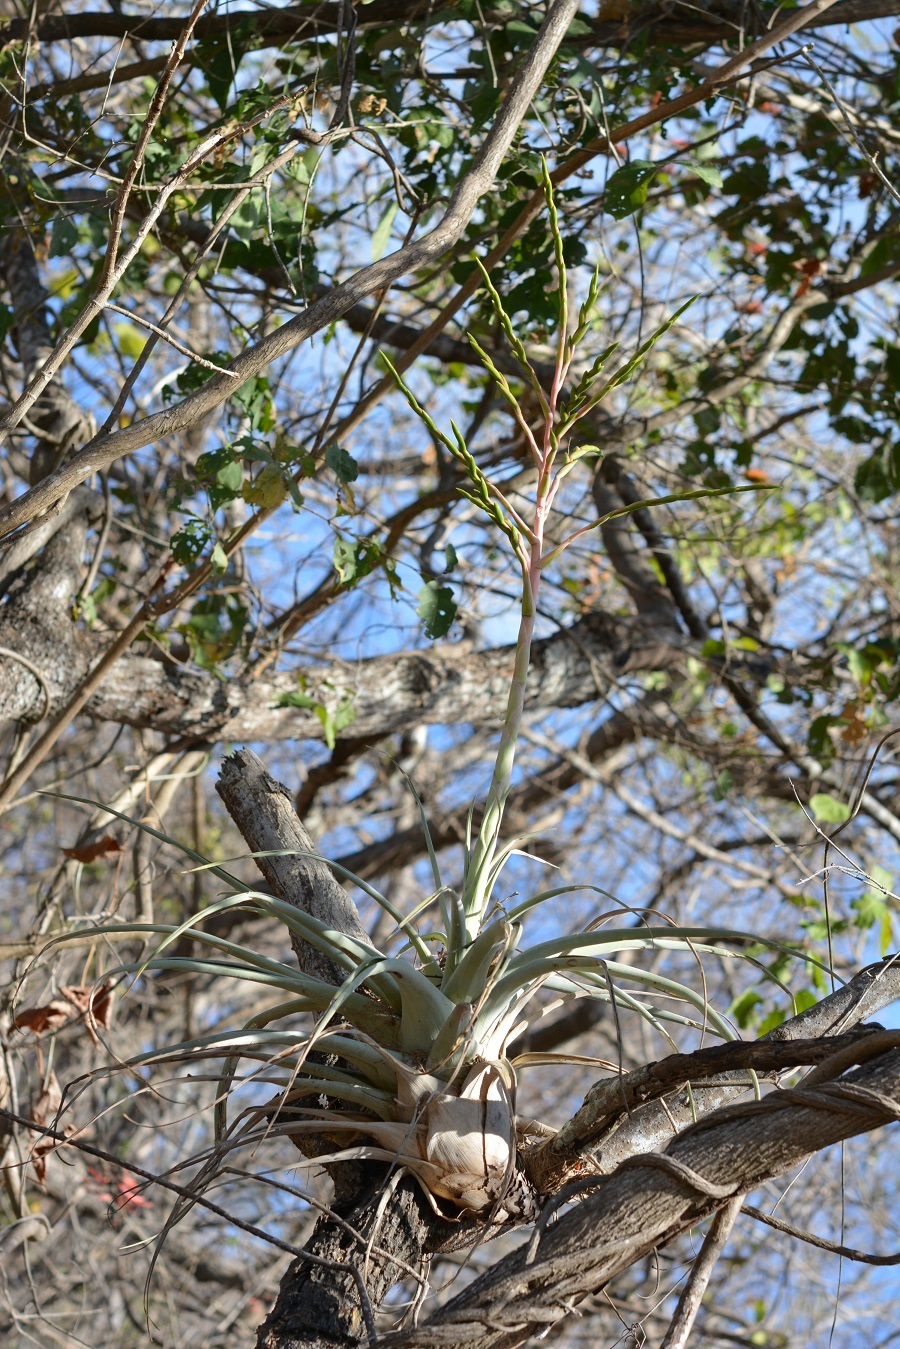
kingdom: Plantae
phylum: Tracheophyta
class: Liliopsida
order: Poales
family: Bromeliaceae
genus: Tillandsia
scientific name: Tillandsia elusiva
